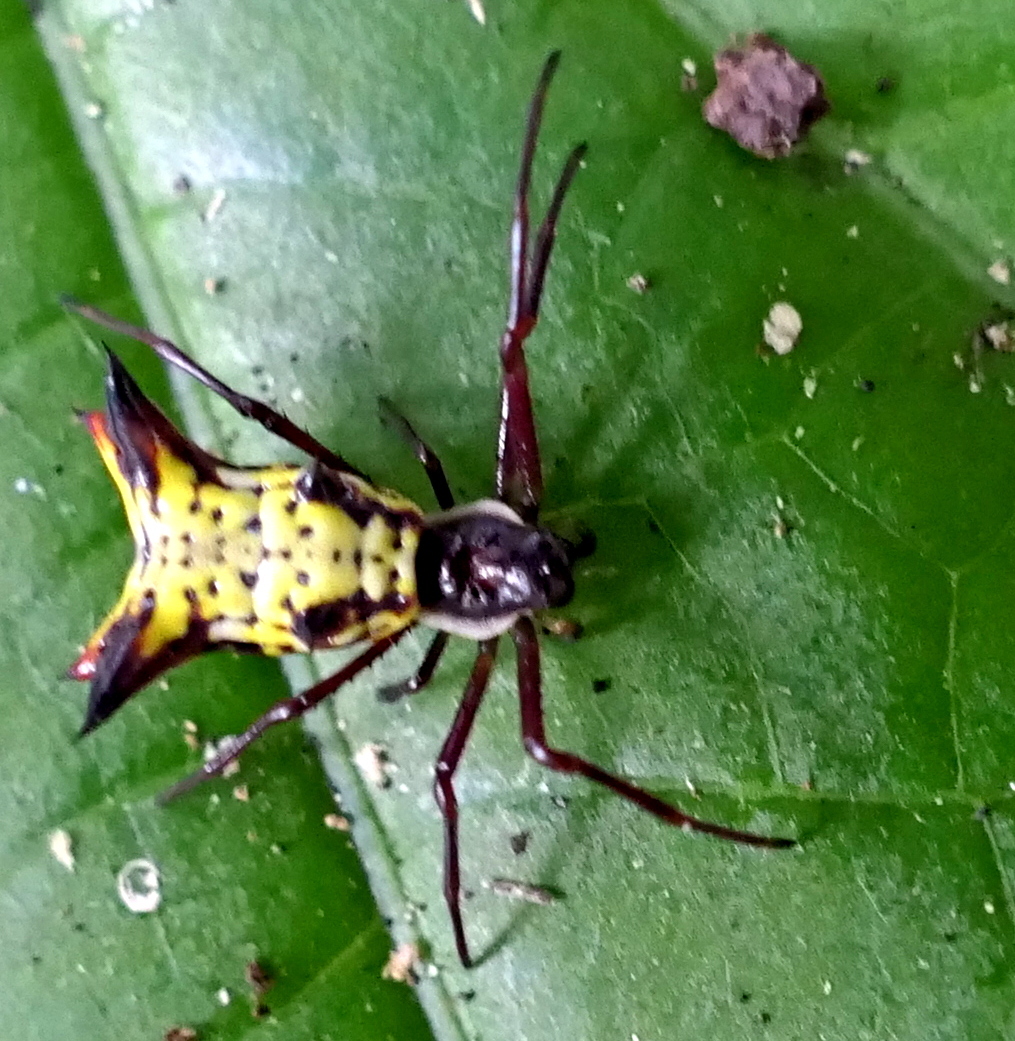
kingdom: Animalia
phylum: Arthropoda
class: Arachnida
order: Araneae
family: Araneidae
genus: Micrathena
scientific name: Micrathena fissispina
